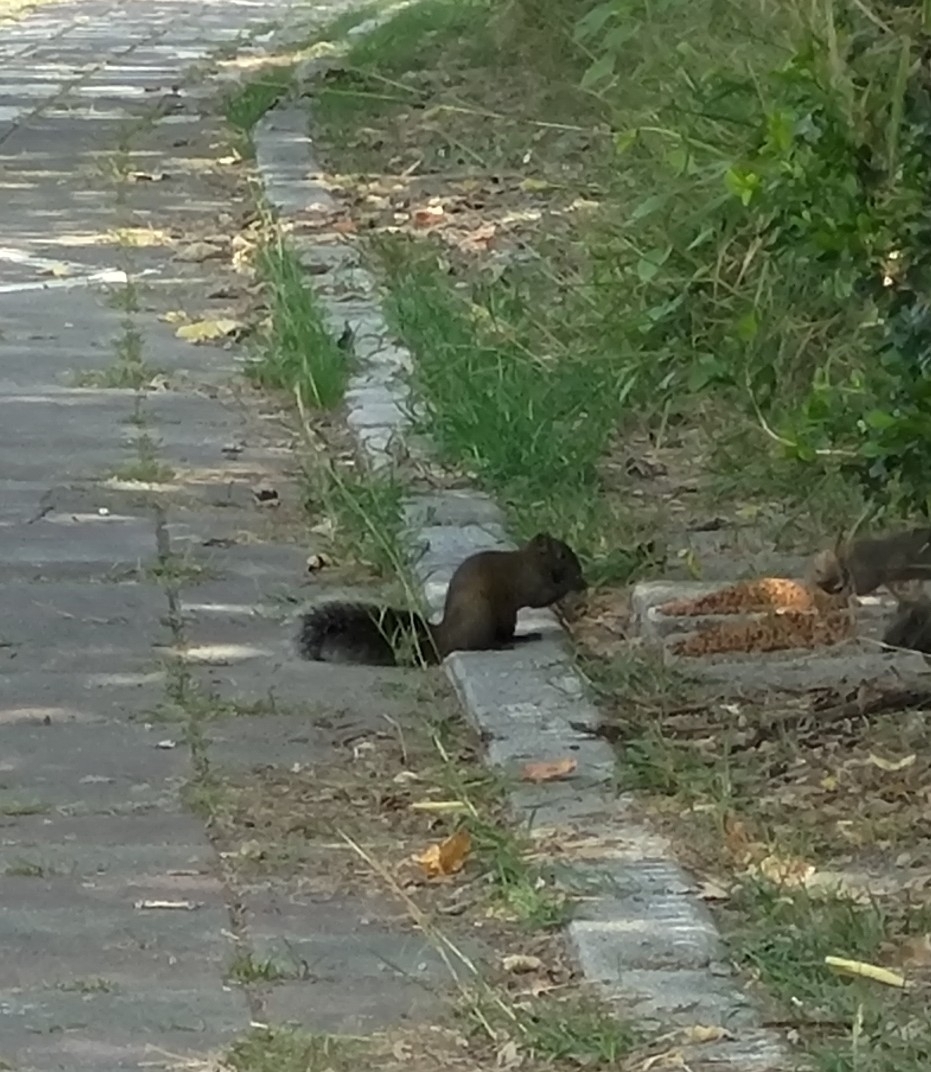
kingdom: Animalia
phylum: Chordata
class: Mammalia
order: Rodentia
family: Sciuridae
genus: Callosciurus
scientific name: Callosciurus erythraeus
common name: Pallas's squirrel
